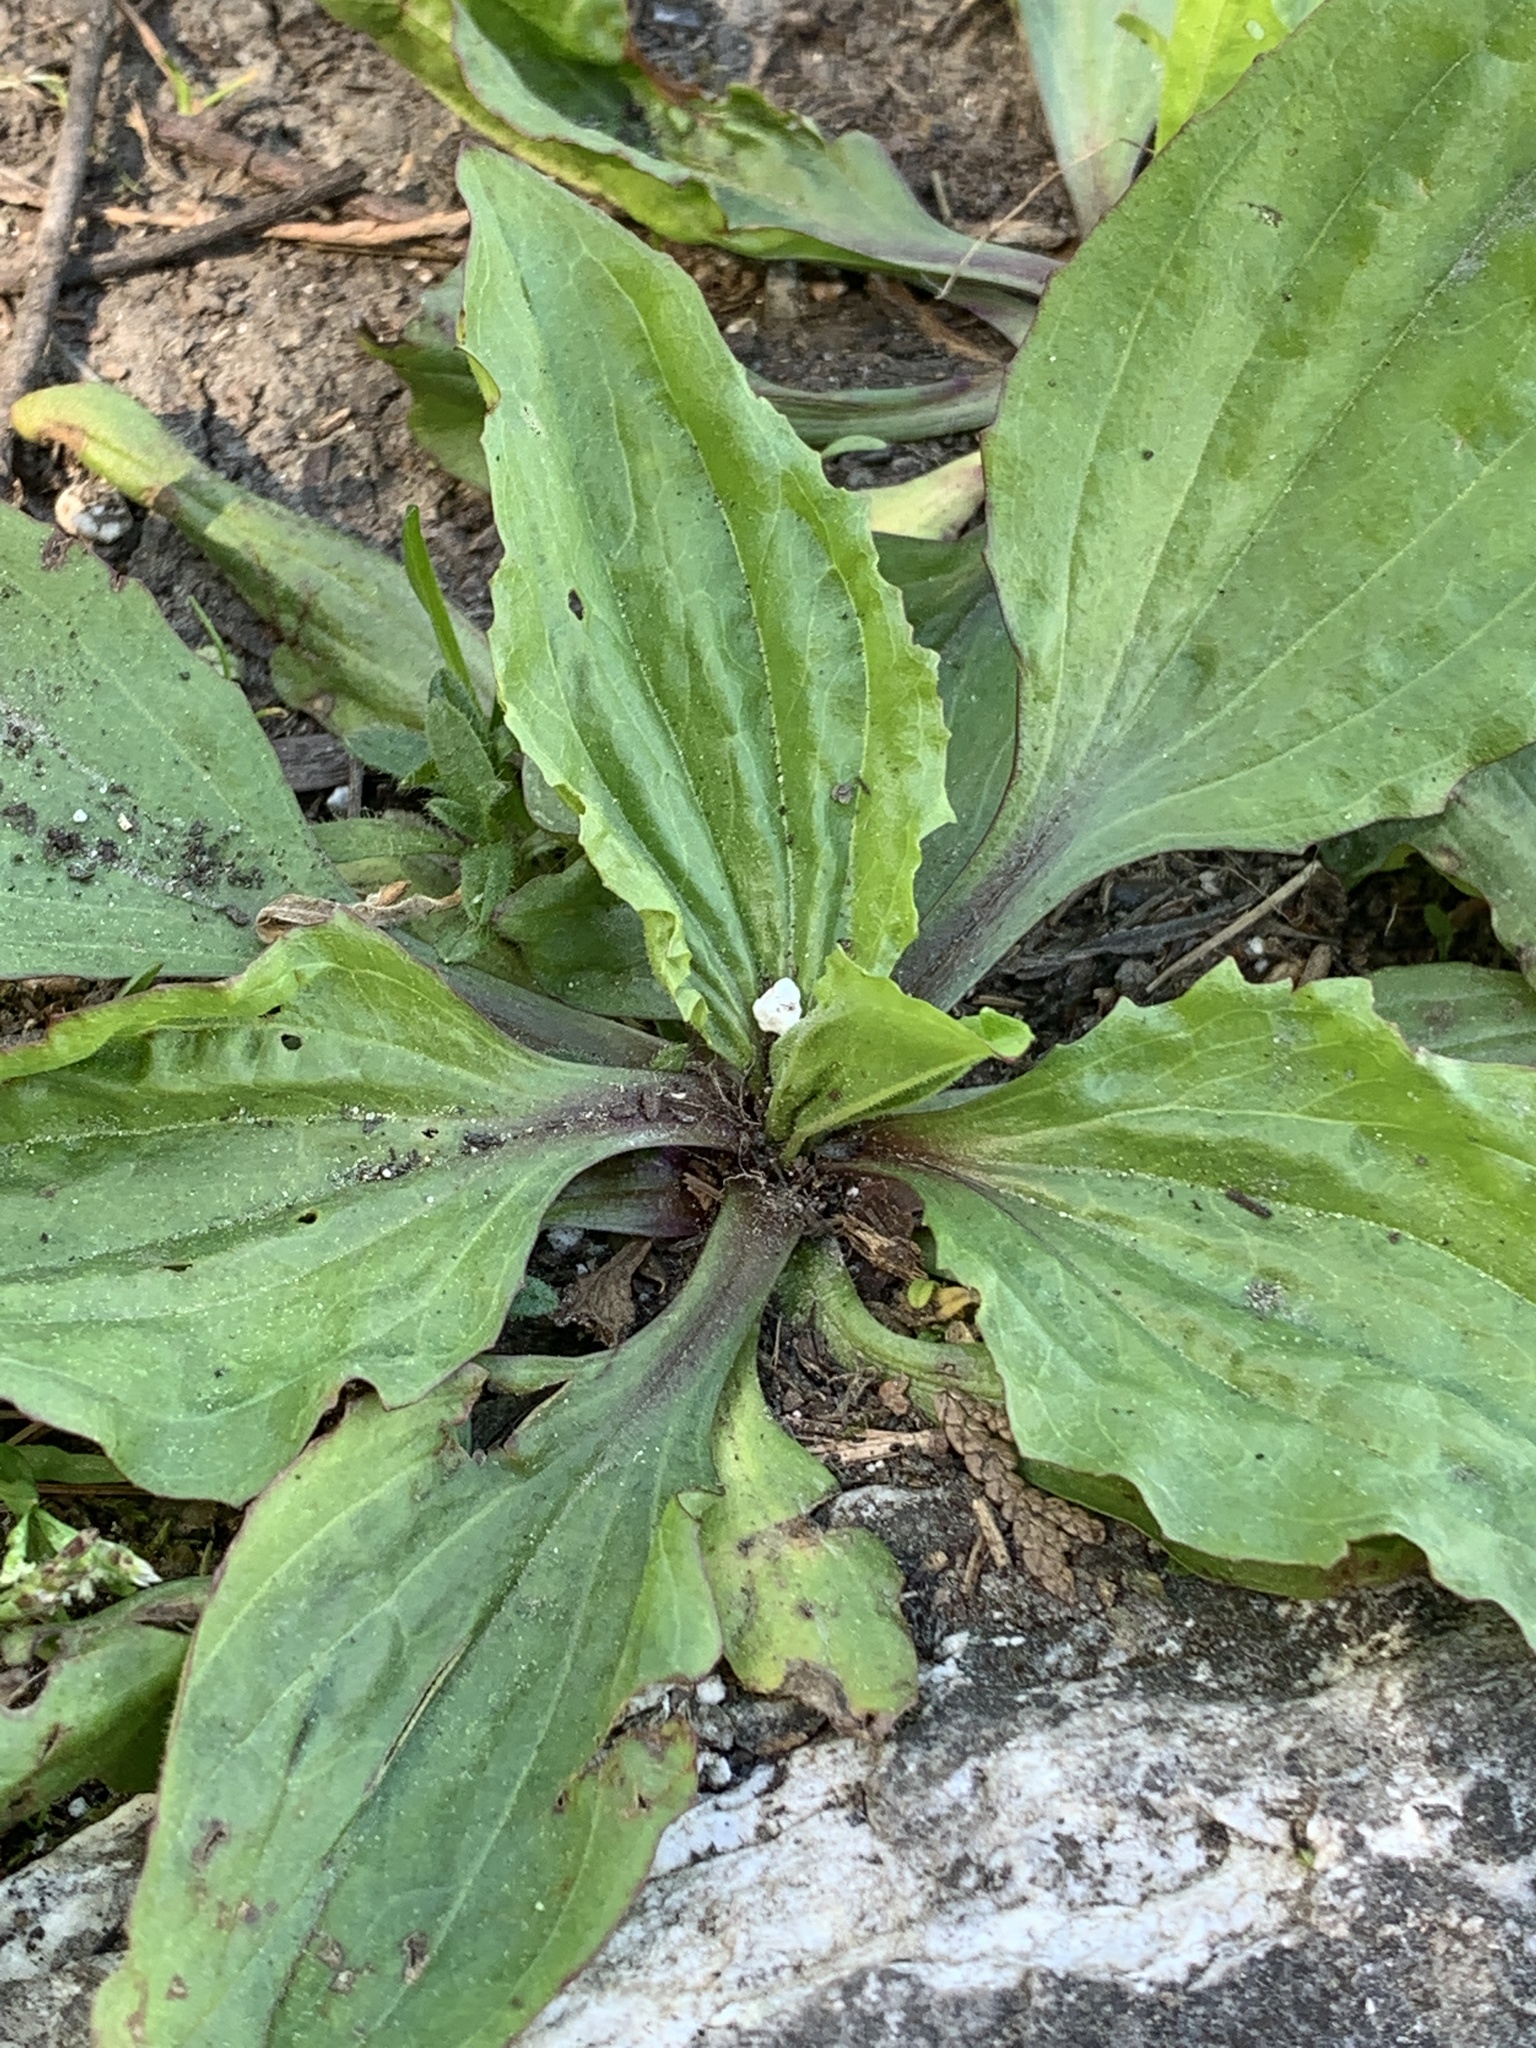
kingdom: Plantae
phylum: Tracheophyta
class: Magnoliopsida
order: Lamiales
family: Plantaginaceae
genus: Plantago
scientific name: Plantago rugelii
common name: American plantain
